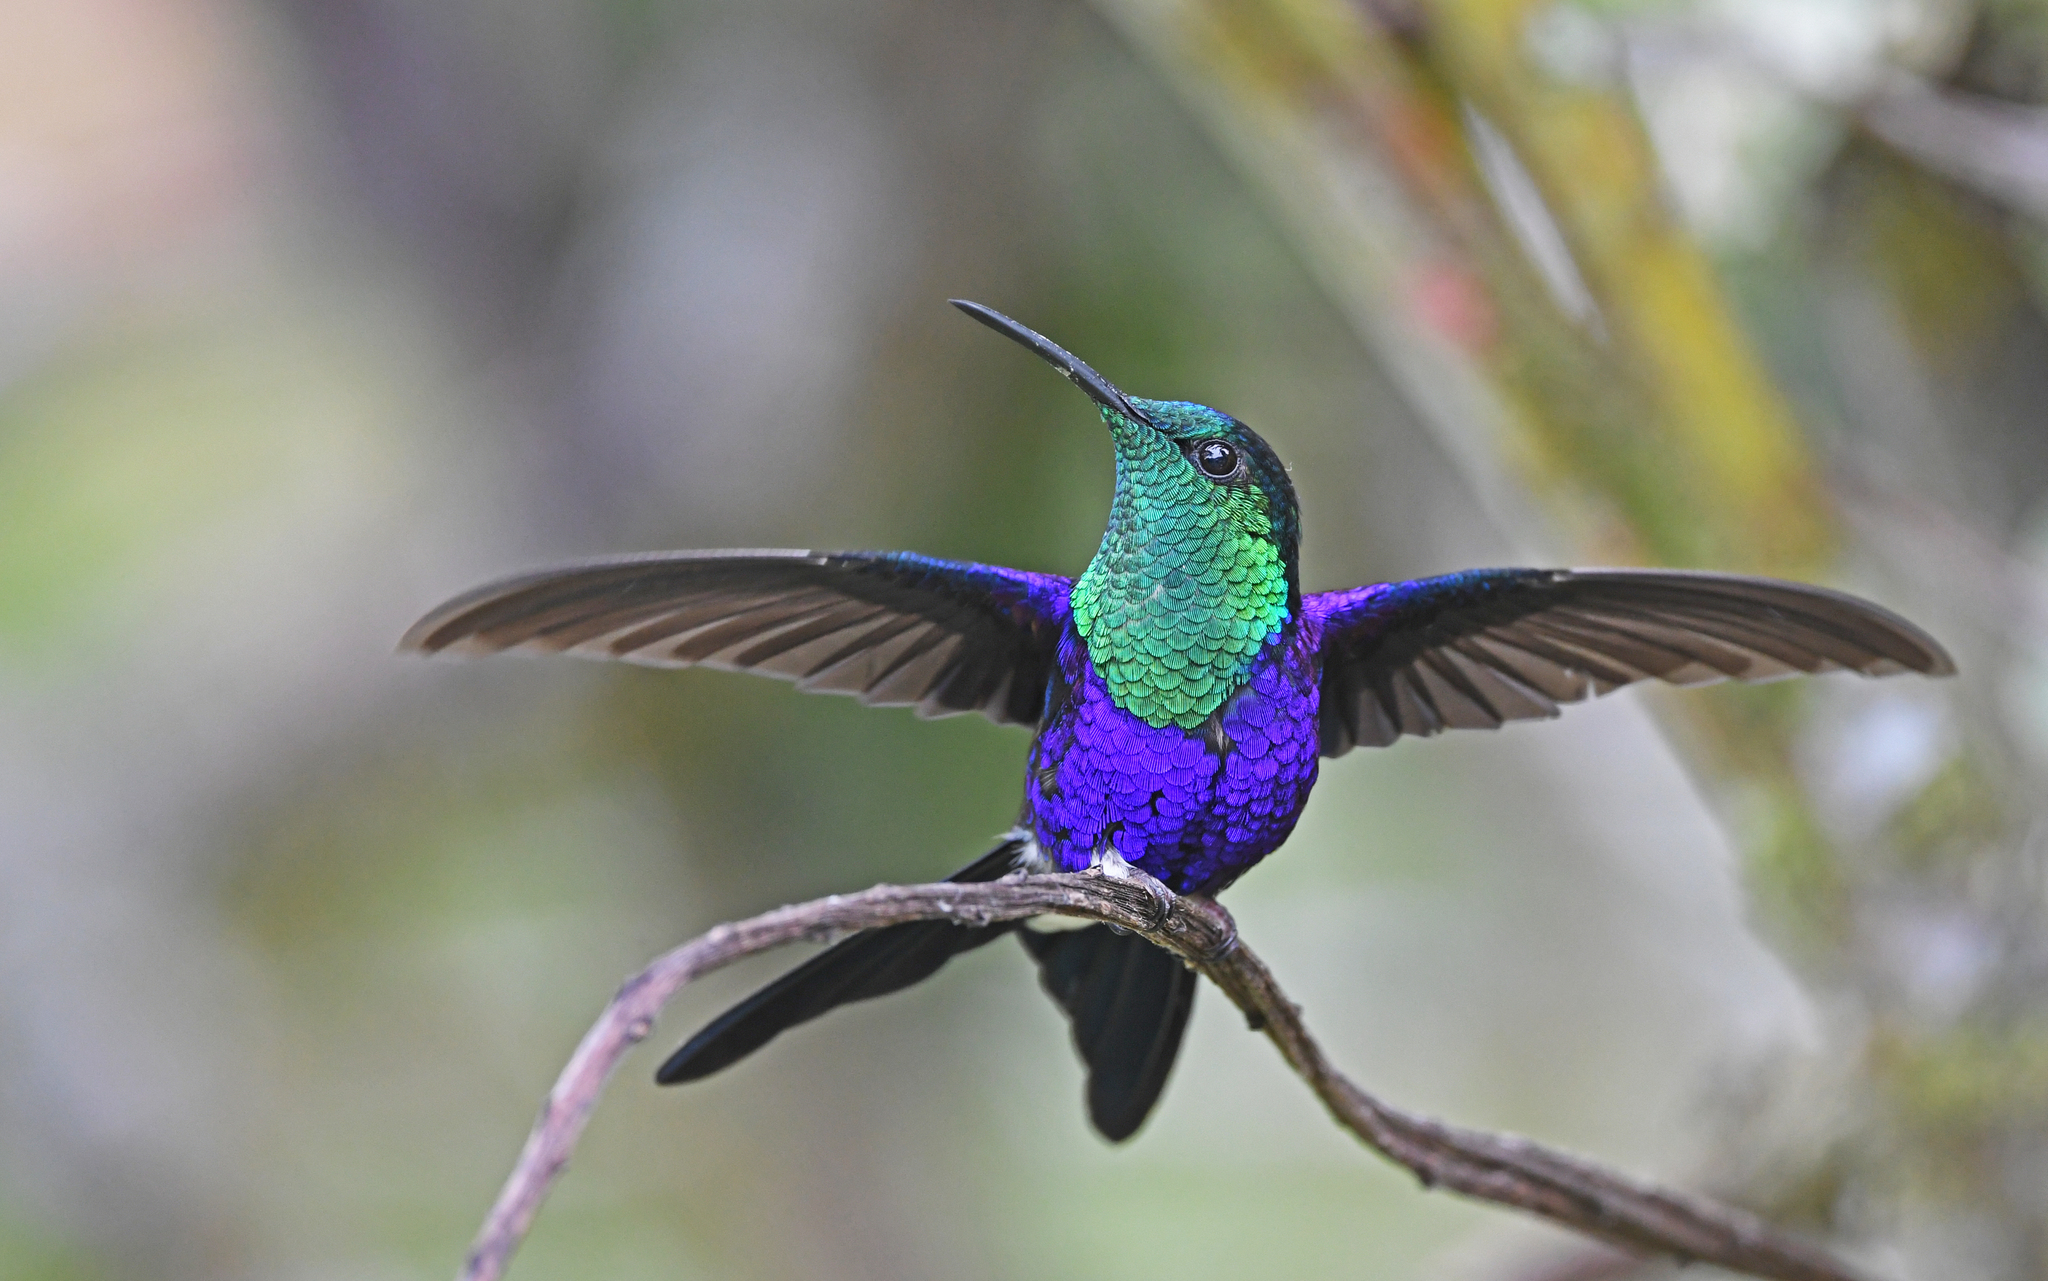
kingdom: Animalia
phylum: Chordata
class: Aves
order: Apodiformes
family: Trochilidae
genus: Thalurania
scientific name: Thalurania colombica
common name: Crowned woodnymph
